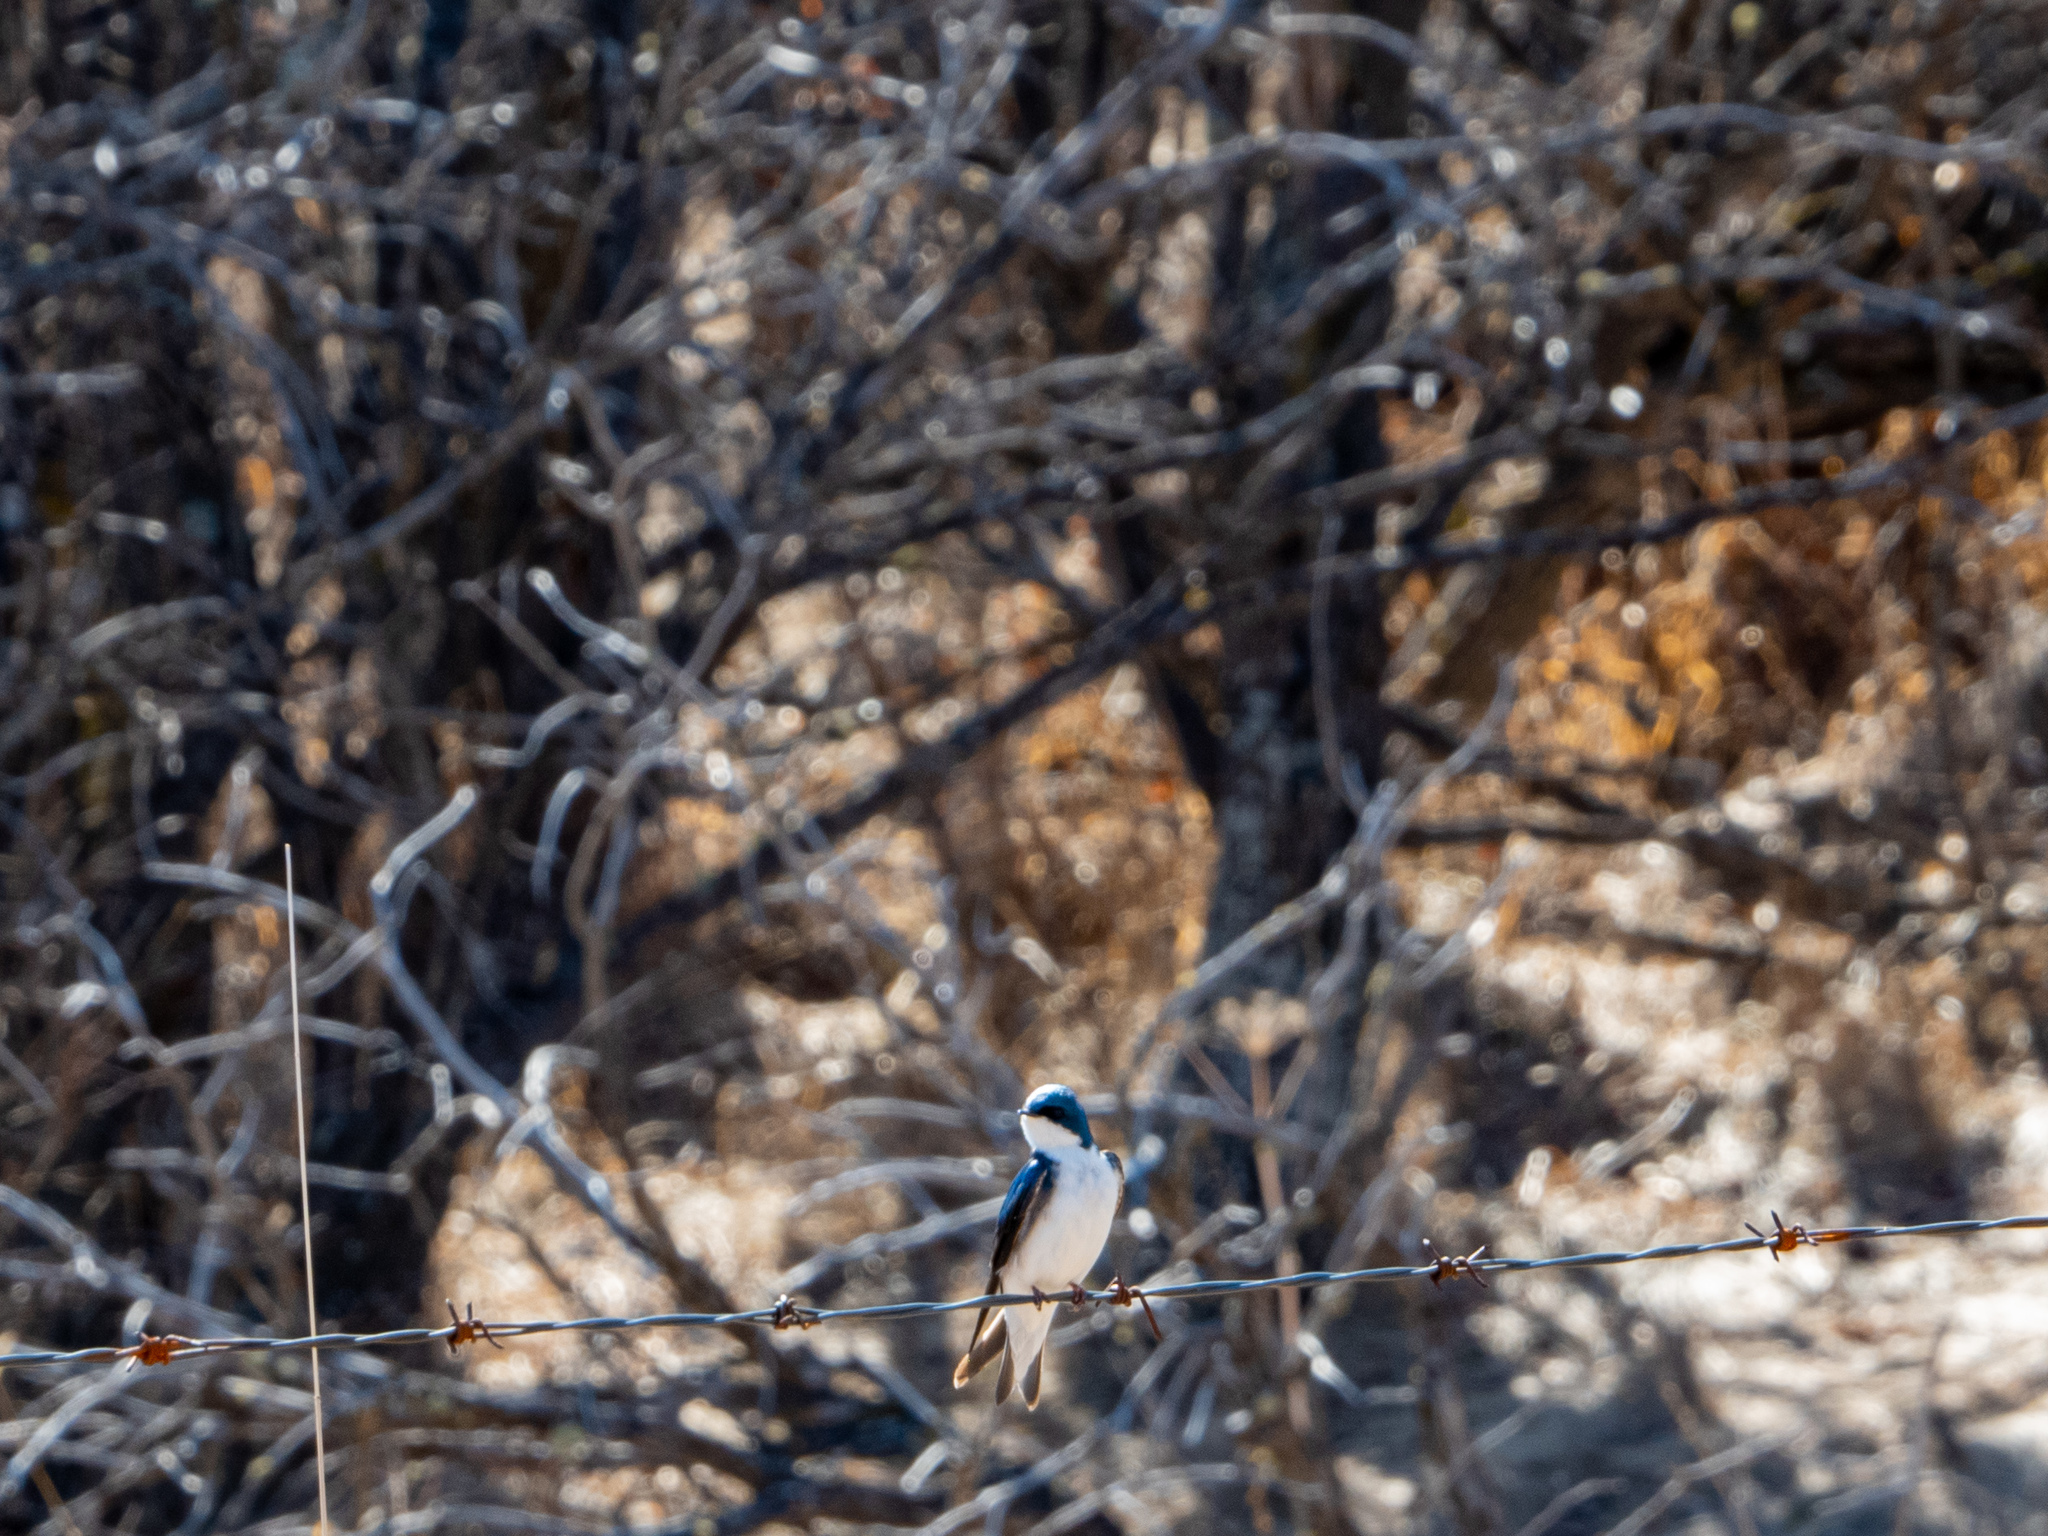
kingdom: Animalia
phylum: Chordata
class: Aves
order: Passeriformes
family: Hirundinidae
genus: Tachycineta
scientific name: Tachycineta bicolor
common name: Tree swallow
